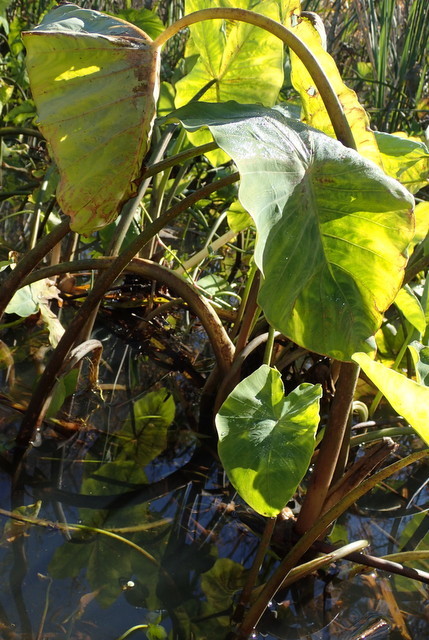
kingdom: Plantae
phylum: Tracheophyta
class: Liliopsida
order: Alismatales
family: Araceae
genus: Colocasia
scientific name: Colocasia esculenta
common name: Taro
